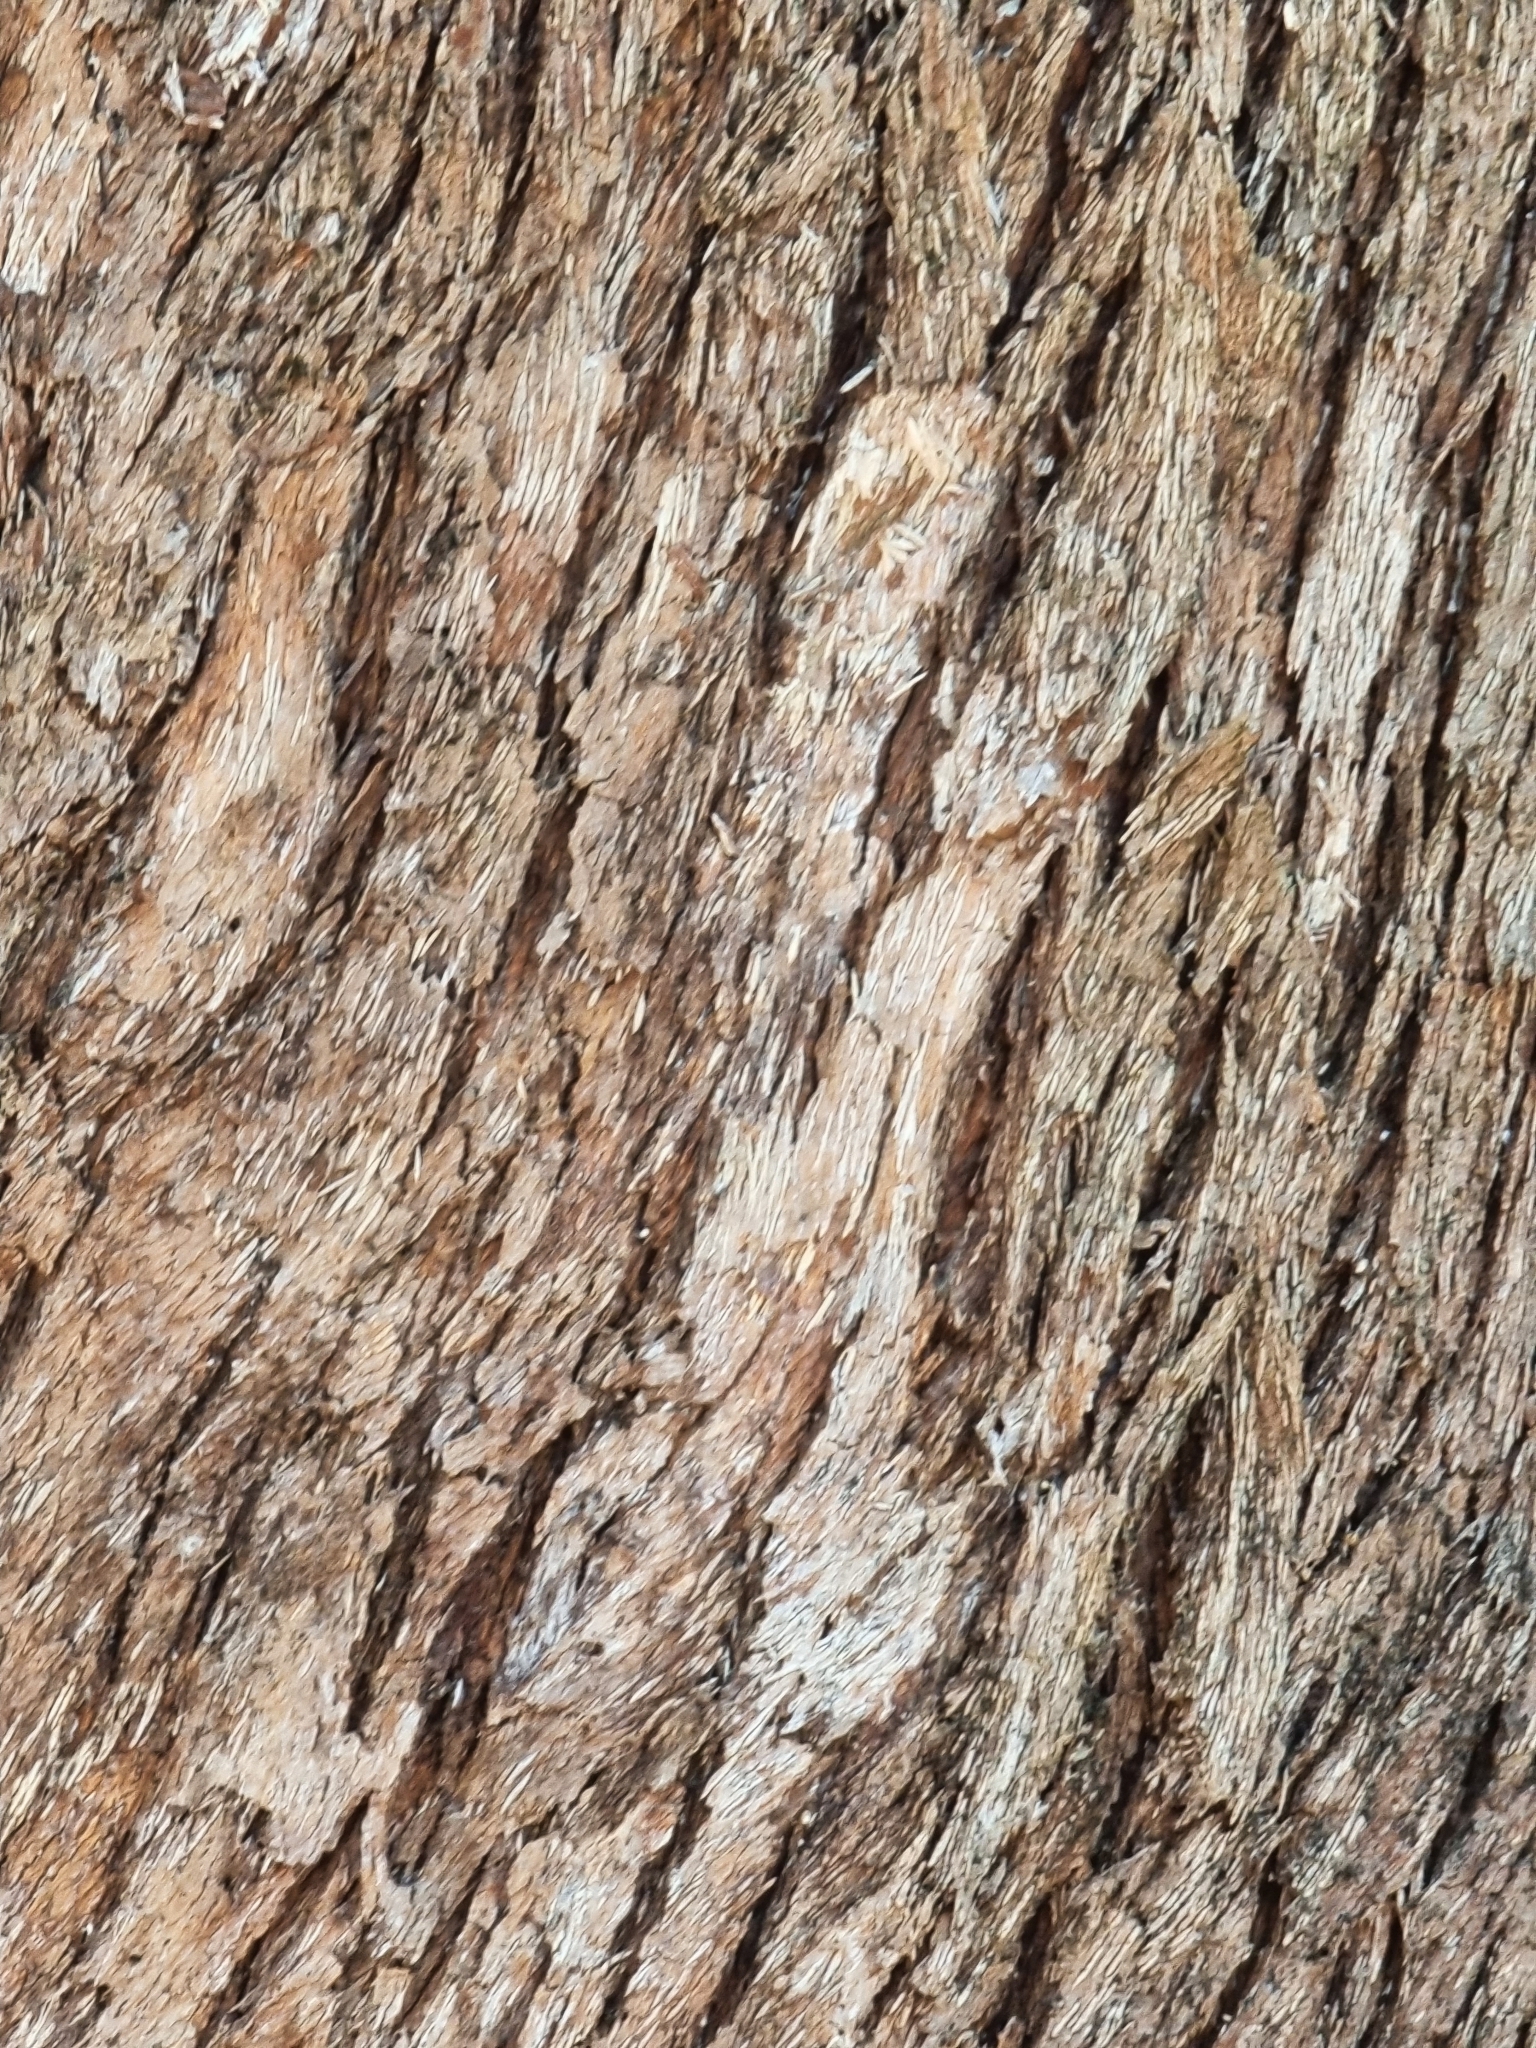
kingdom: Plantae
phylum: Tracheophyta
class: Magnoliopsida
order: Myrtales
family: Myrtaceae
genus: Lophostemon
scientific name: Lophostemon confertus
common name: Brisbane box
